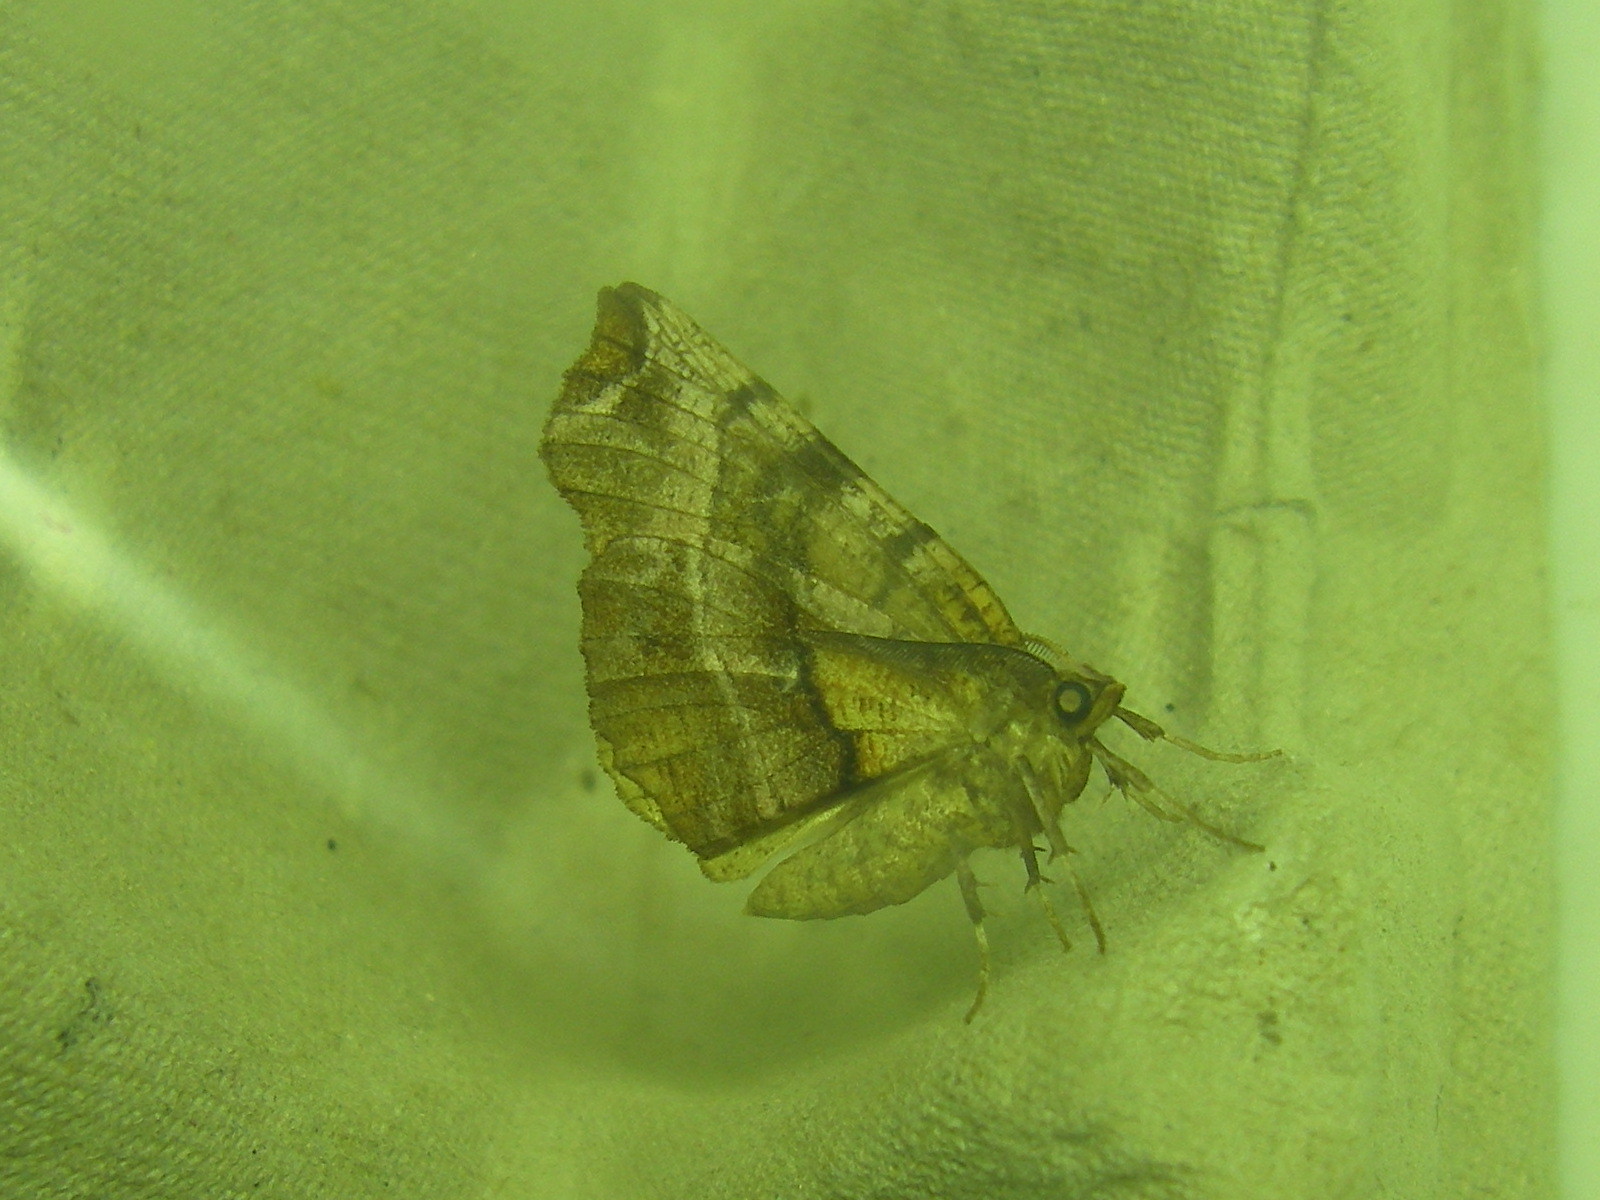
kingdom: Animalia
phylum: Arthropoda
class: Insecta
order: Lepidoptera
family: Geometridae
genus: Selenia
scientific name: Selenia dentaria
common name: Early thorn
